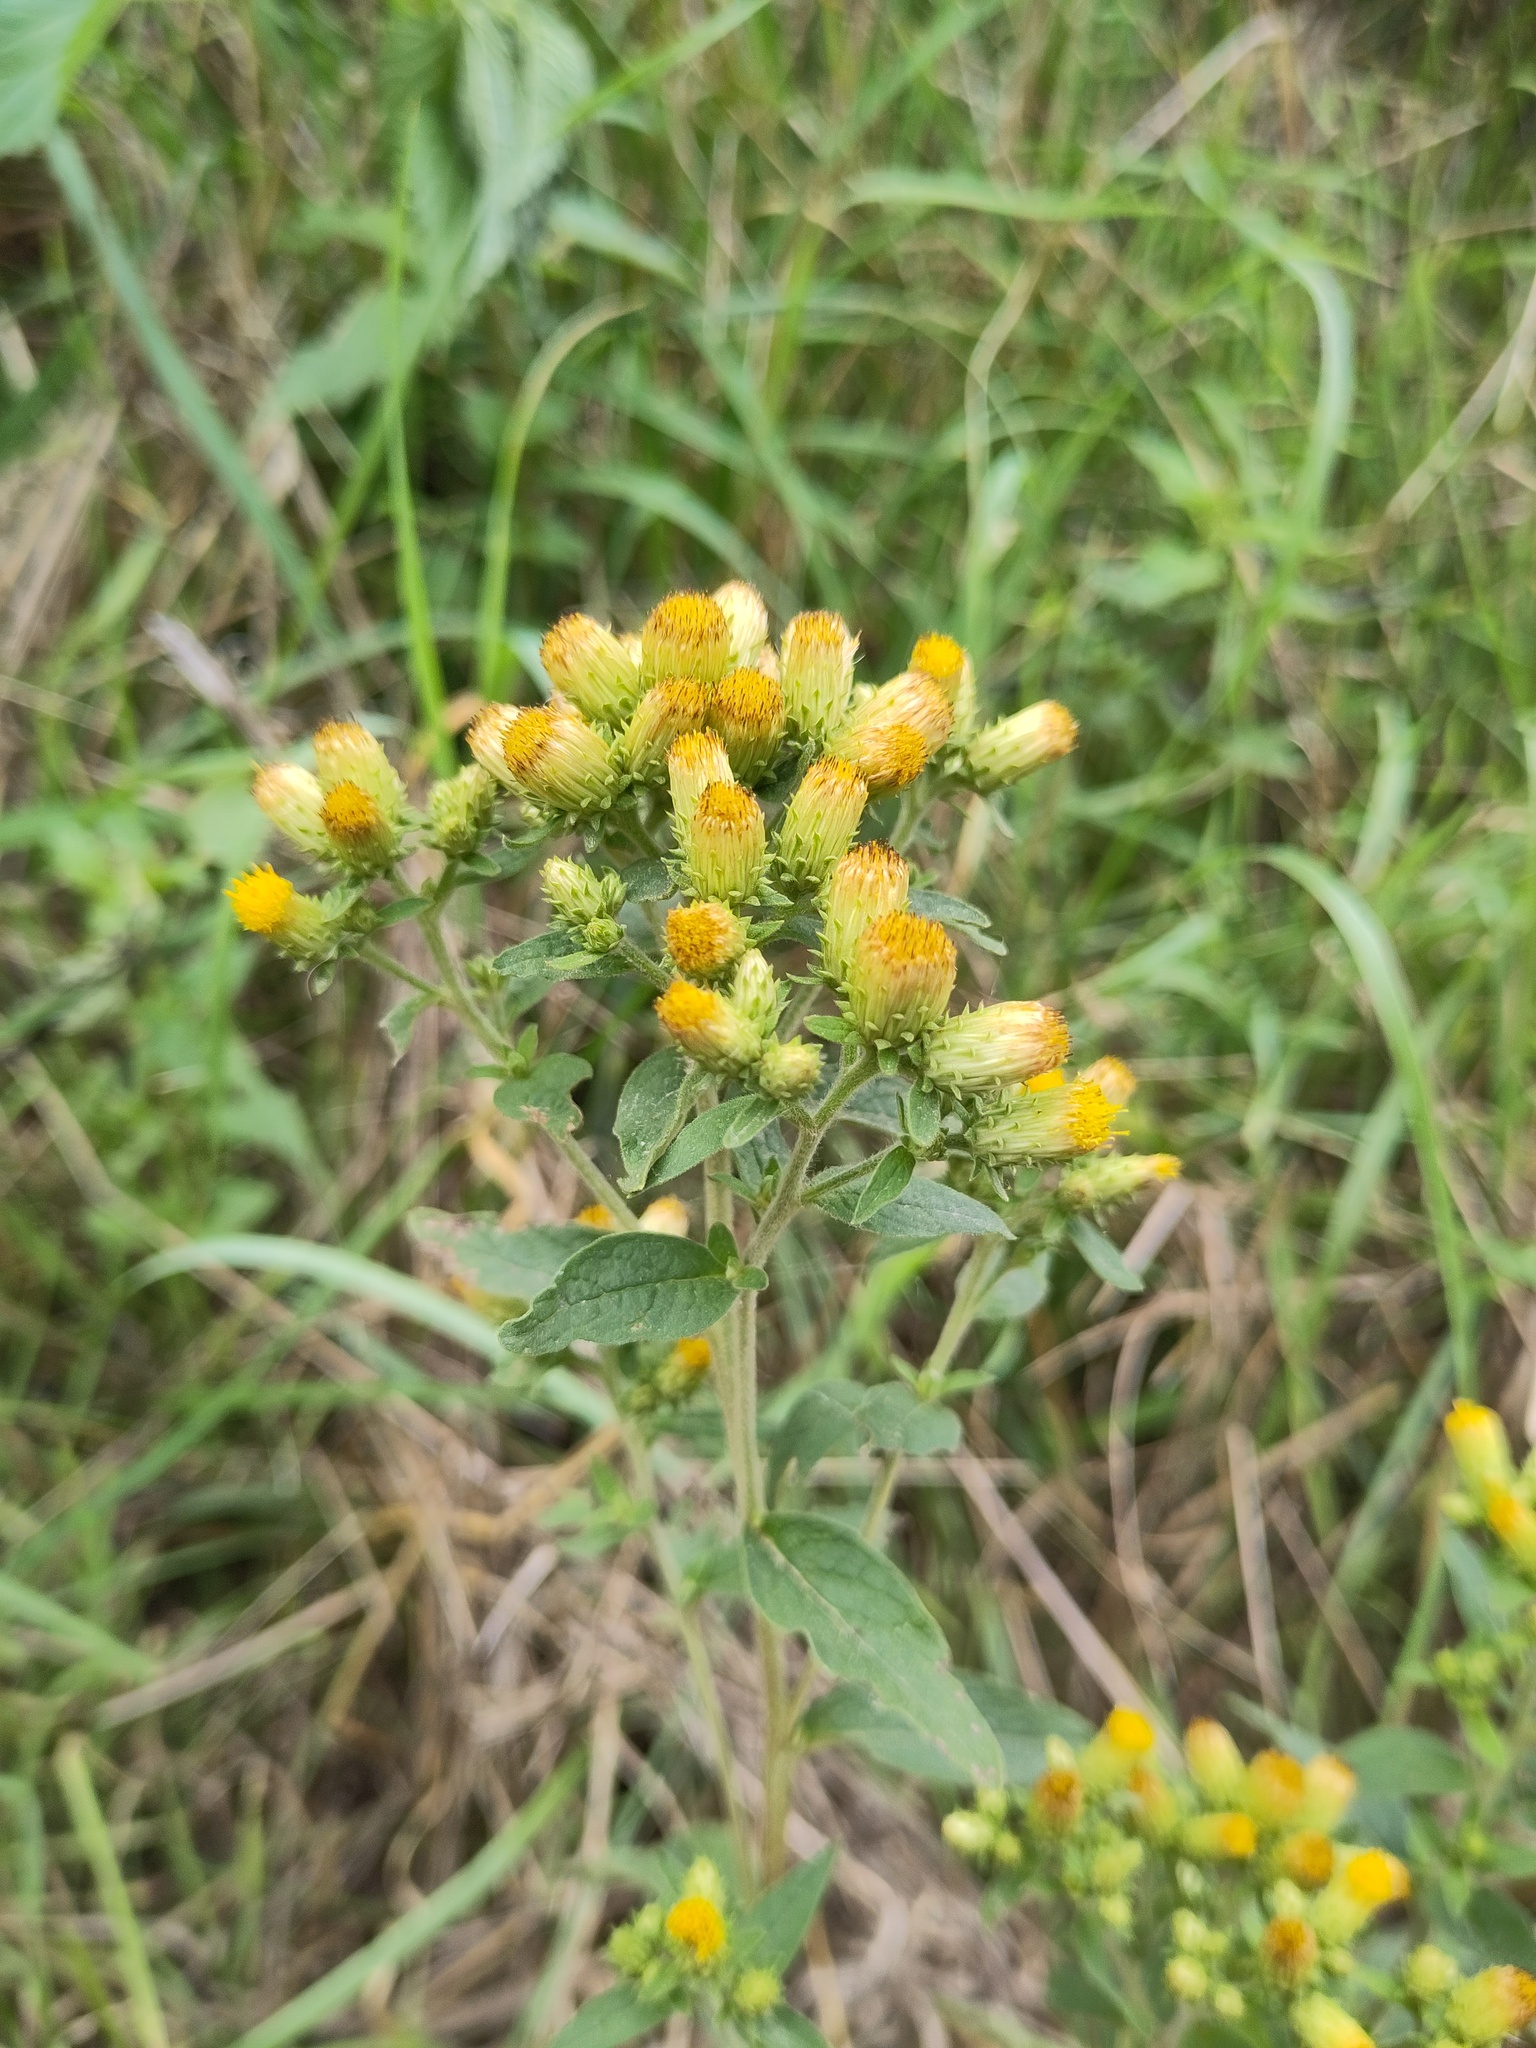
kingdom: Plantae
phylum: Tracheophyta
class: Magnoliopsida
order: Asterales
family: Asteraceae
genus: Pentanema
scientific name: Pentanema squarrosum
